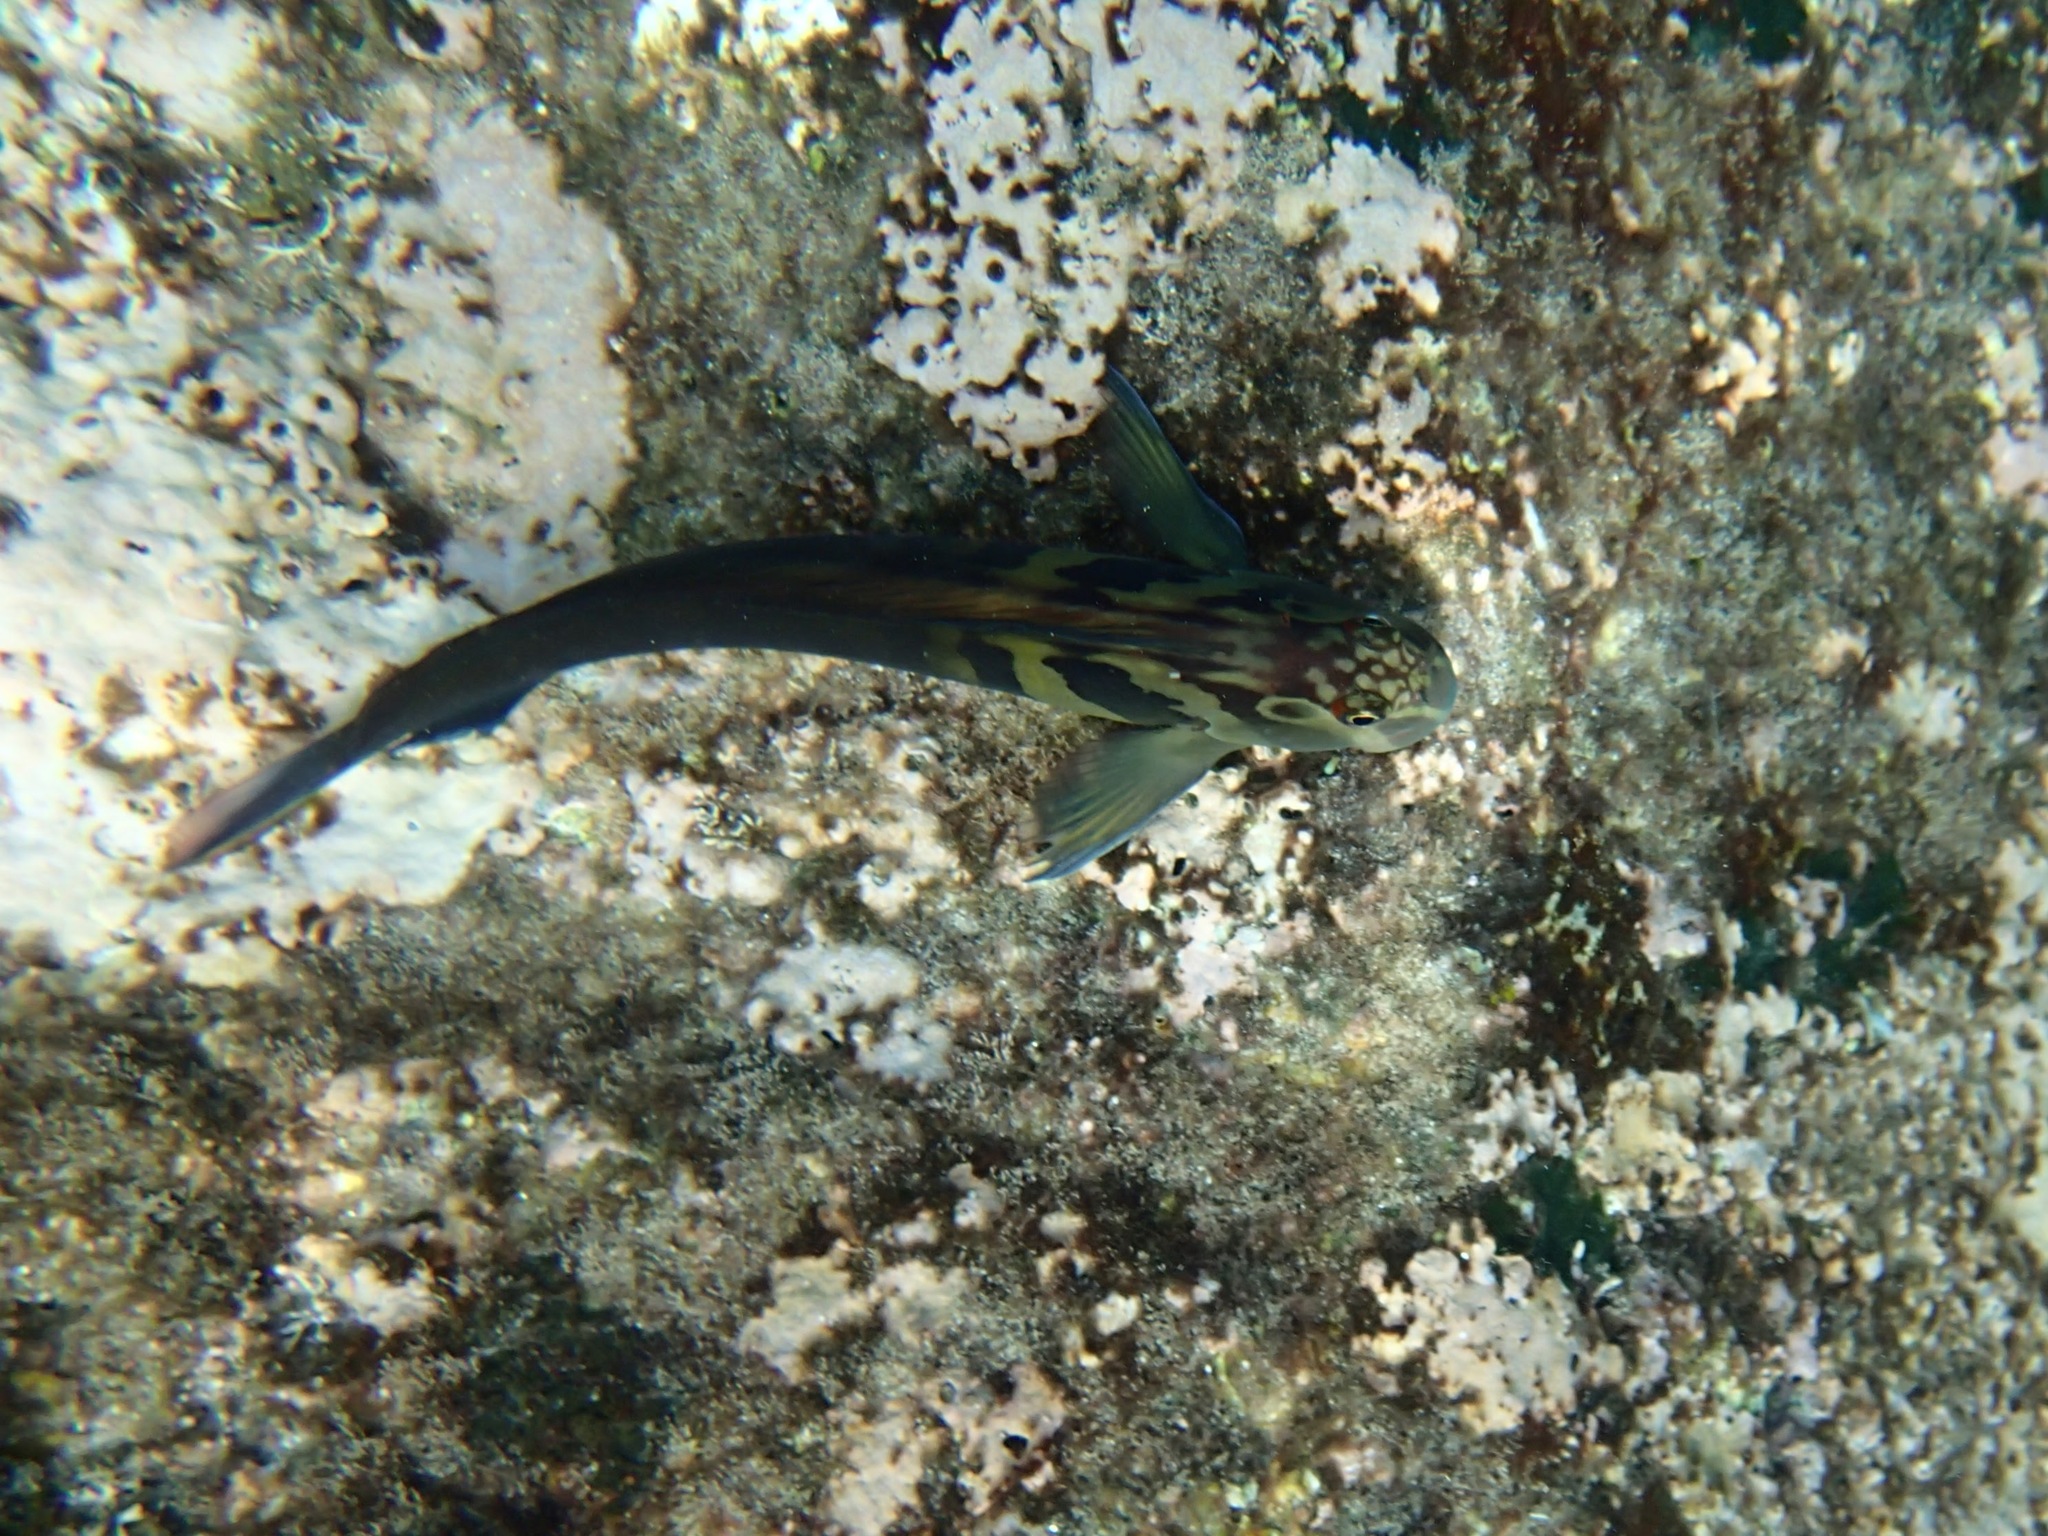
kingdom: Animalia
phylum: Chordata
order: Perciformes
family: Blenniidae
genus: Ophioblennius
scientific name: Ophioblennius steindachneri
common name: Panamic fanged blenny
